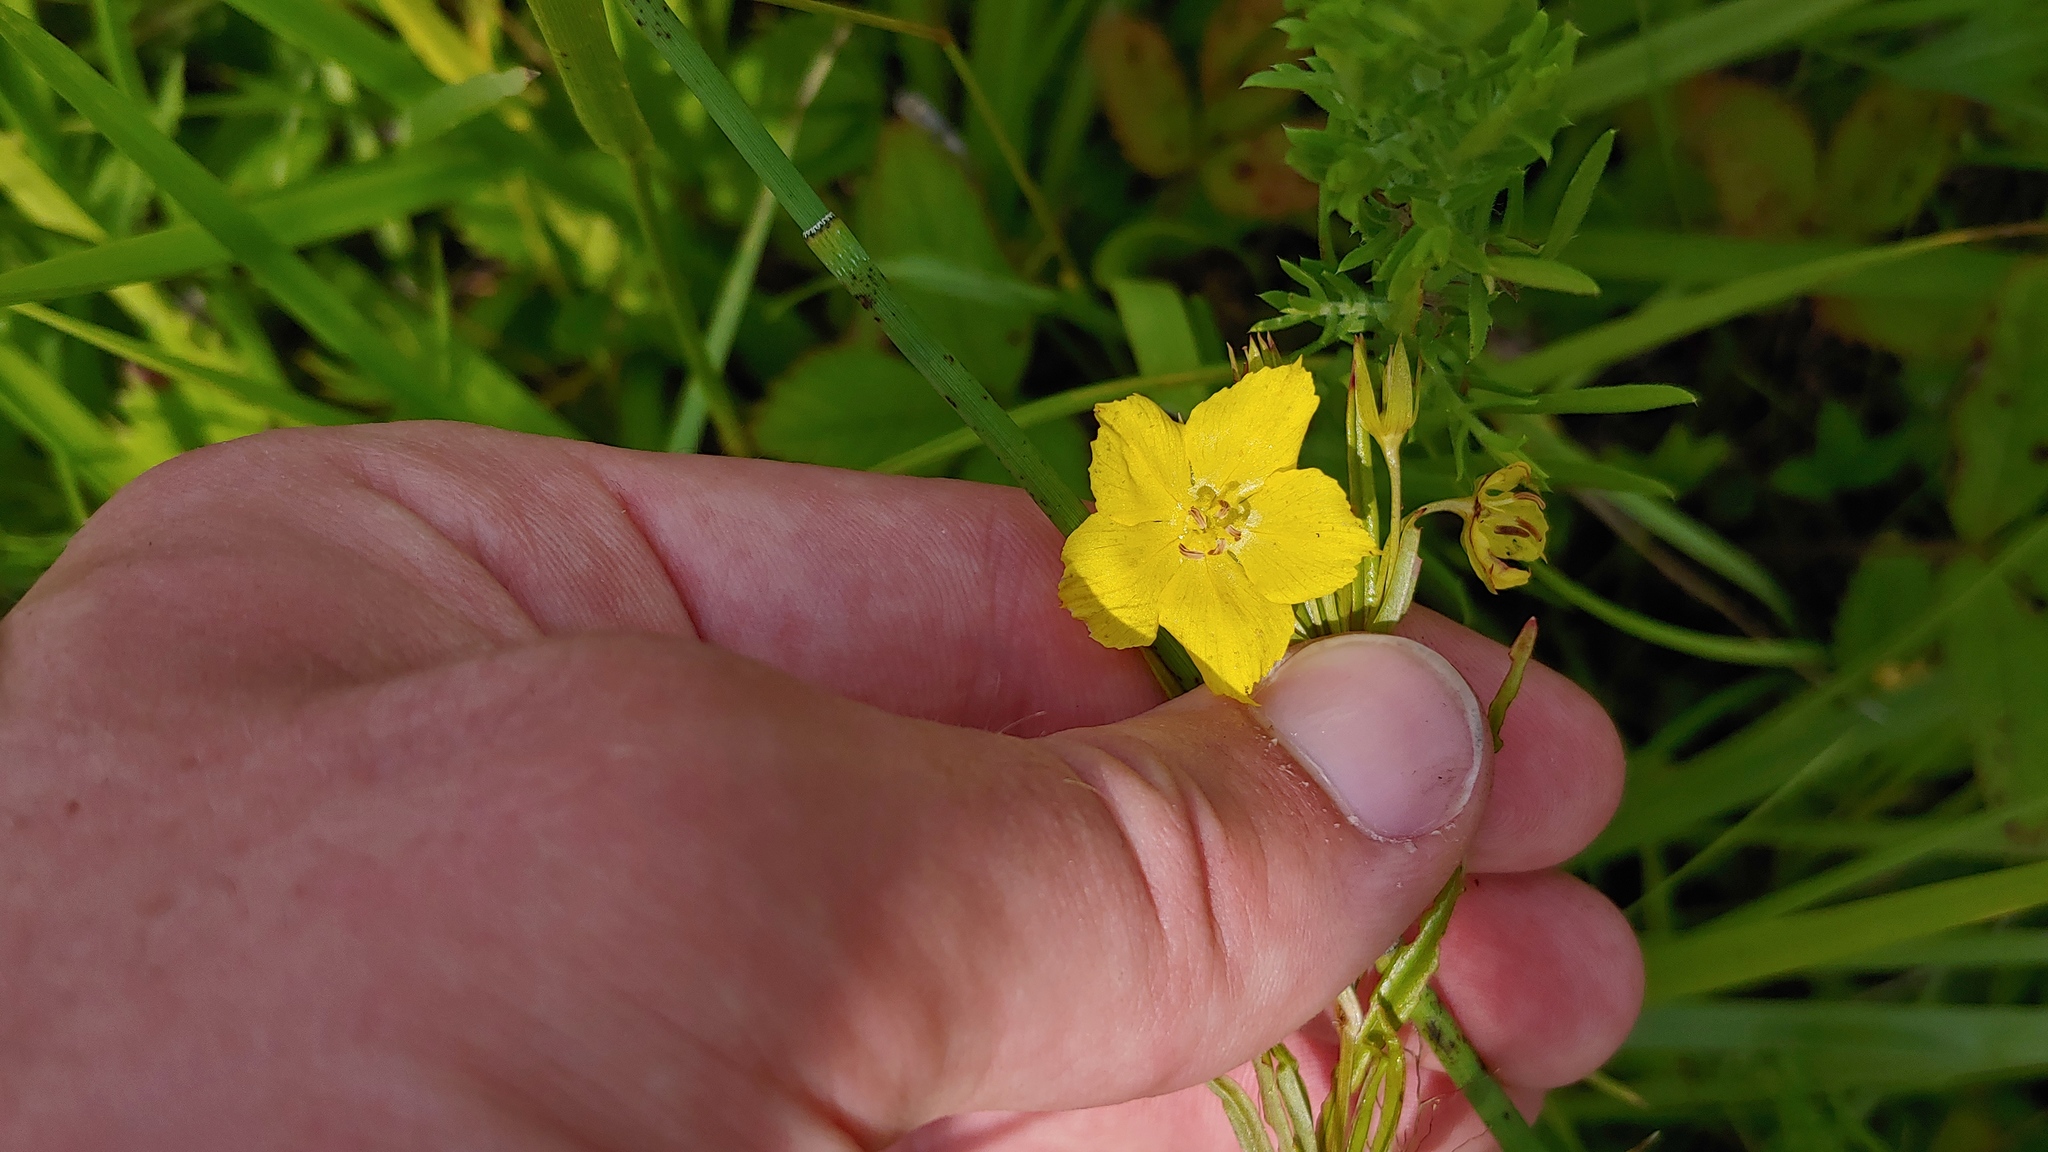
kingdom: Plantae
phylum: Tracheophyta
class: Magnoliopsida
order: Ericales
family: Primulaceae
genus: Lysimachia
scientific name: Lysimachia quadriflora
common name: Four-flowered loosestrife
